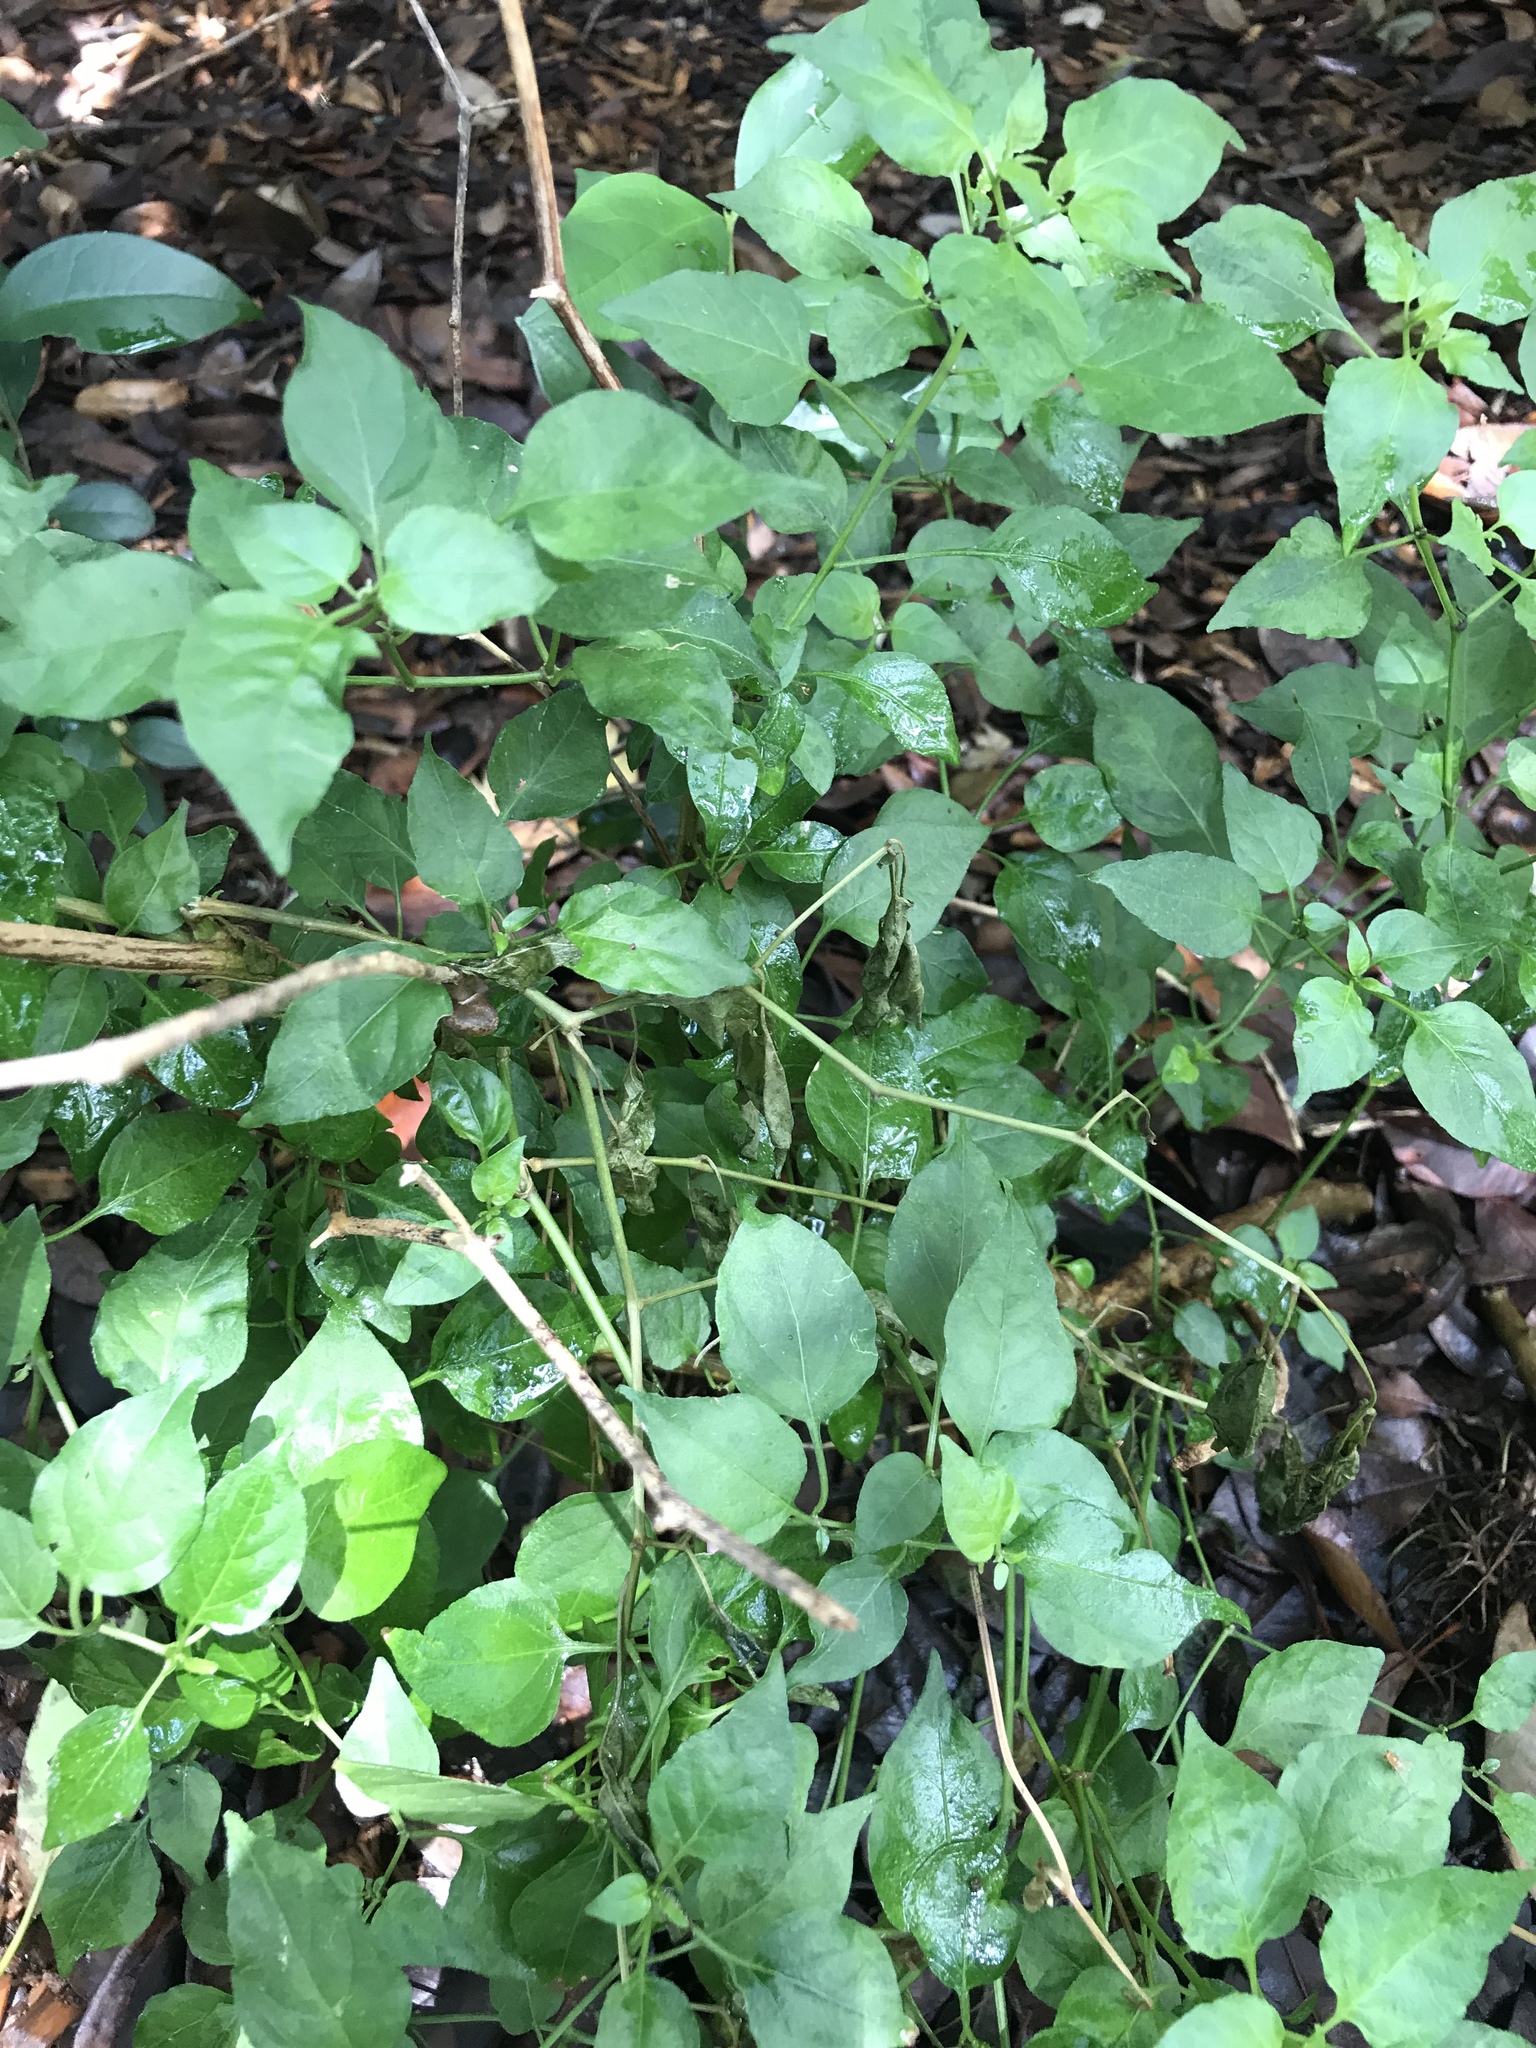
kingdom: Plantae
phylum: Tracheophyta
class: Magnoliopsida
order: Solanales
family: Solanaceae
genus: Capsicum
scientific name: Capsicum annuum
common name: Sweet pepper
